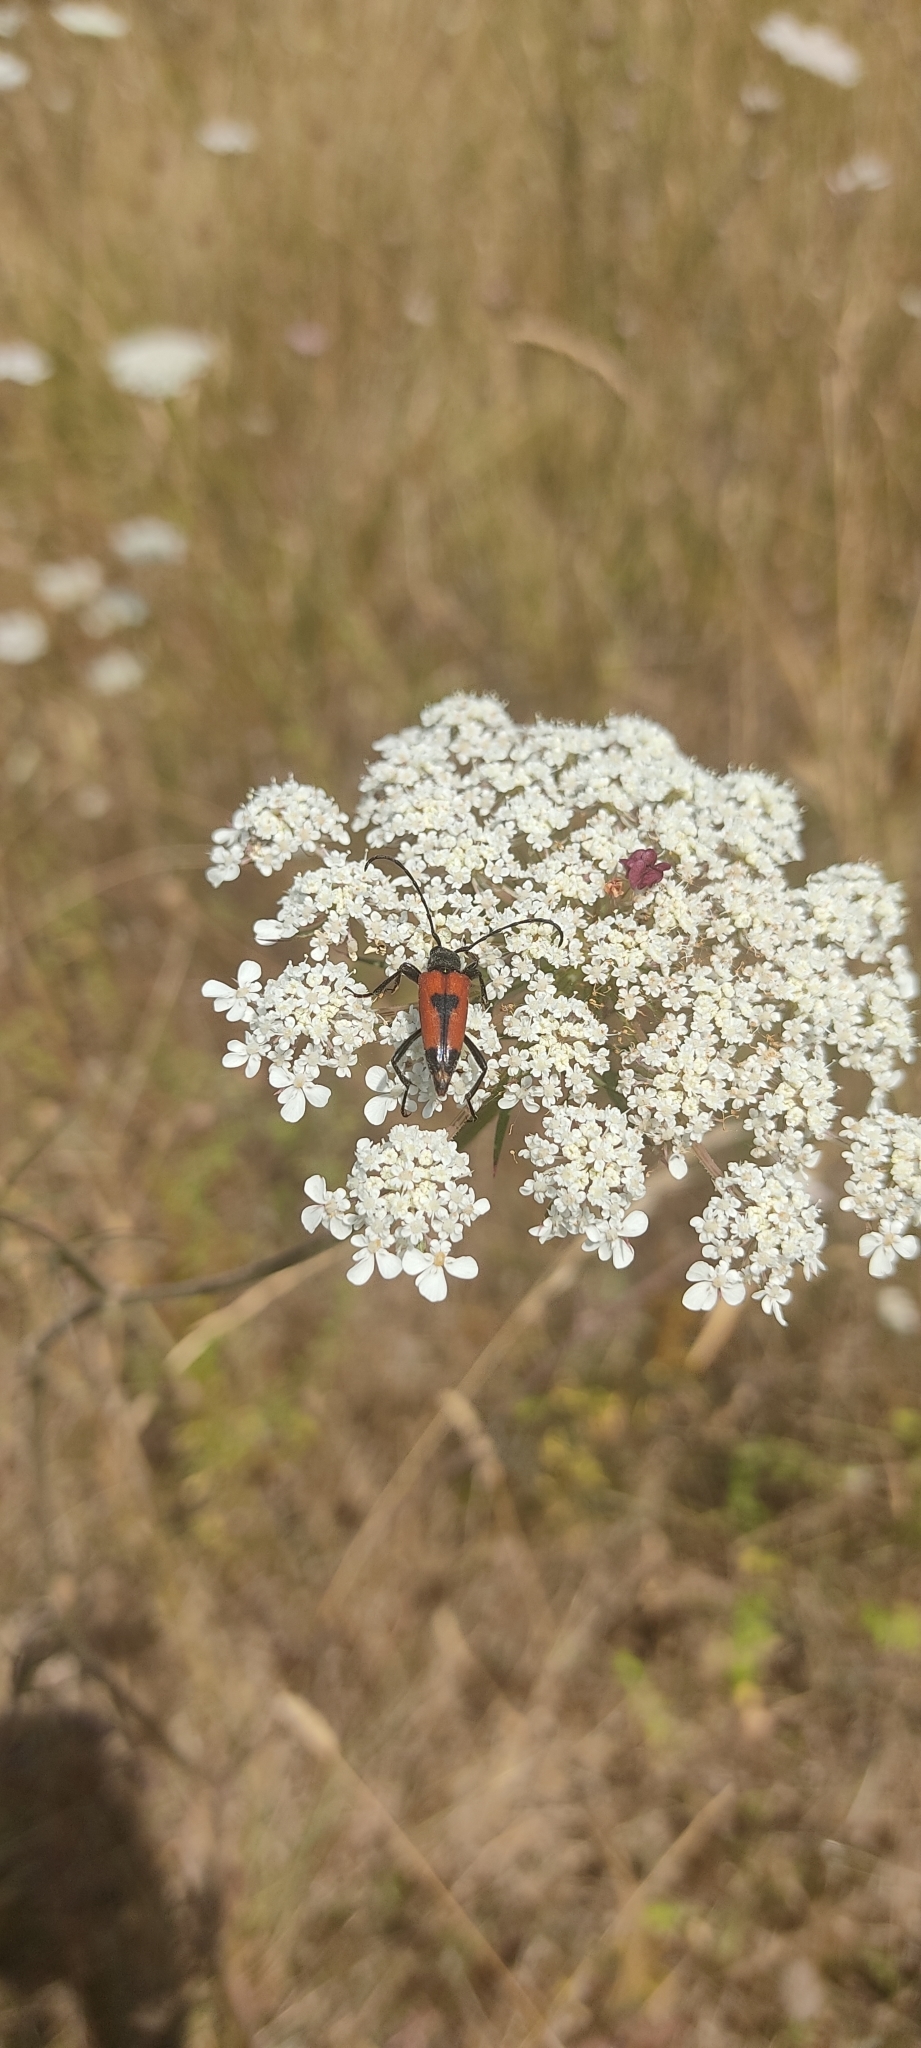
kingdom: Animalia
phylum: Arthropoda
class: Insecta
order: Coleoptera
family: Cerambycidae
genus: Stictoleptura
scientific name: Stictoleptura cordigera
